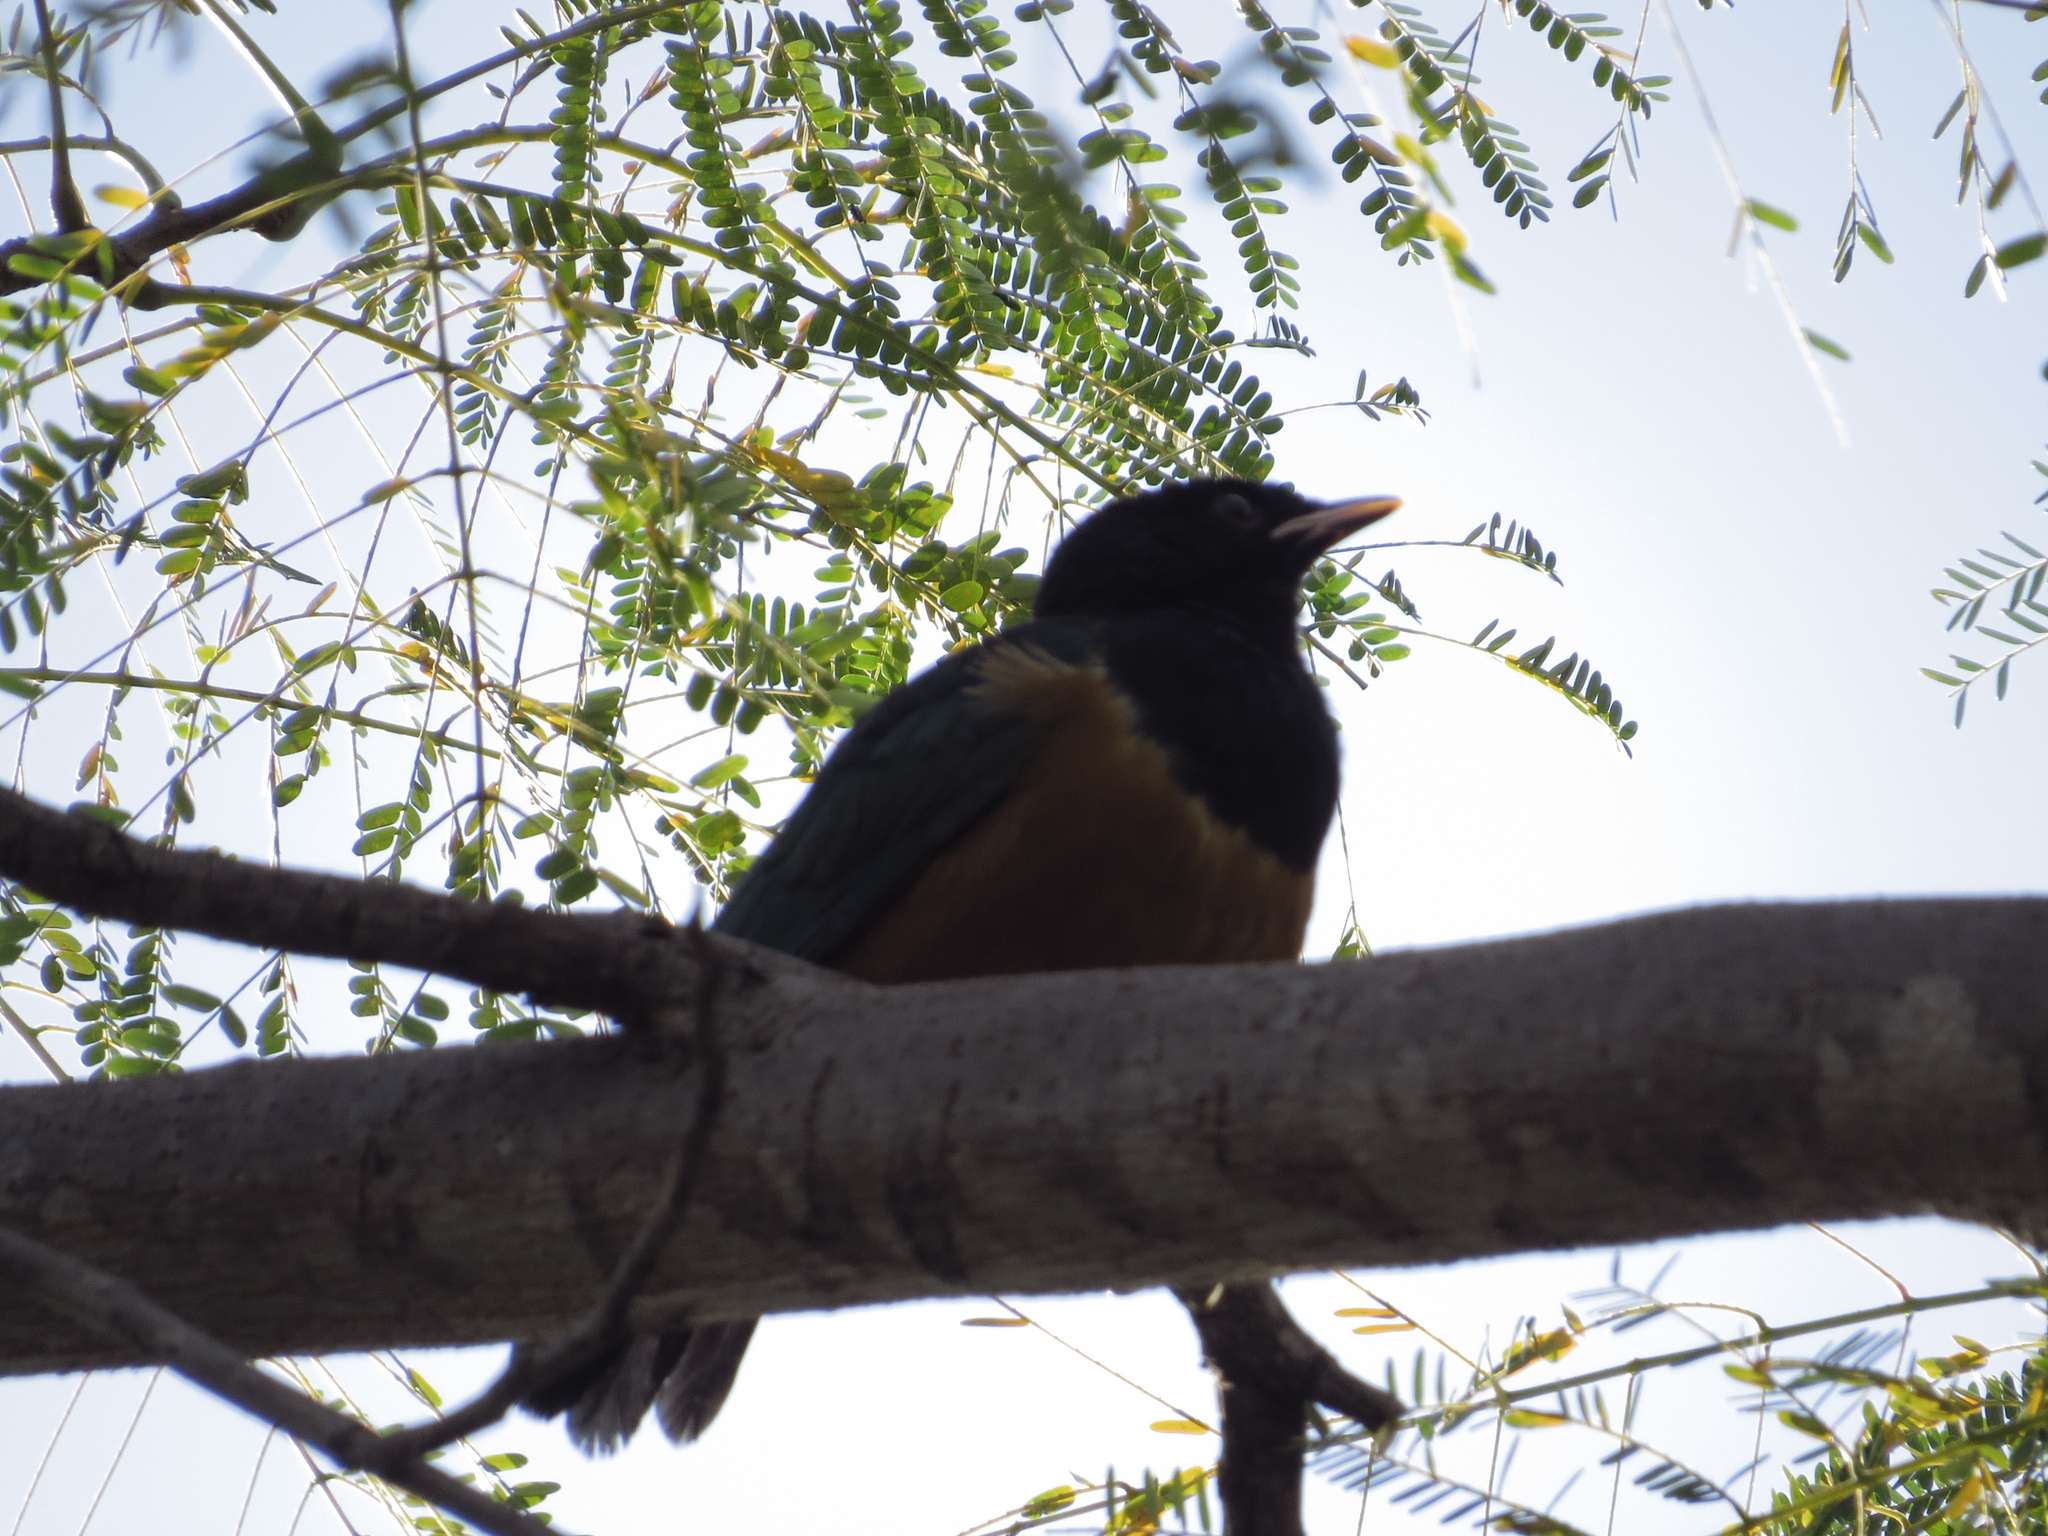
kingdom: Animalia
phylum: Chordata
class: Aves
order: Passeriformes
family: Sturnidae
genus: Lamprotornis
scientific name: Lamprotornis superbus
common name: Superb starling
